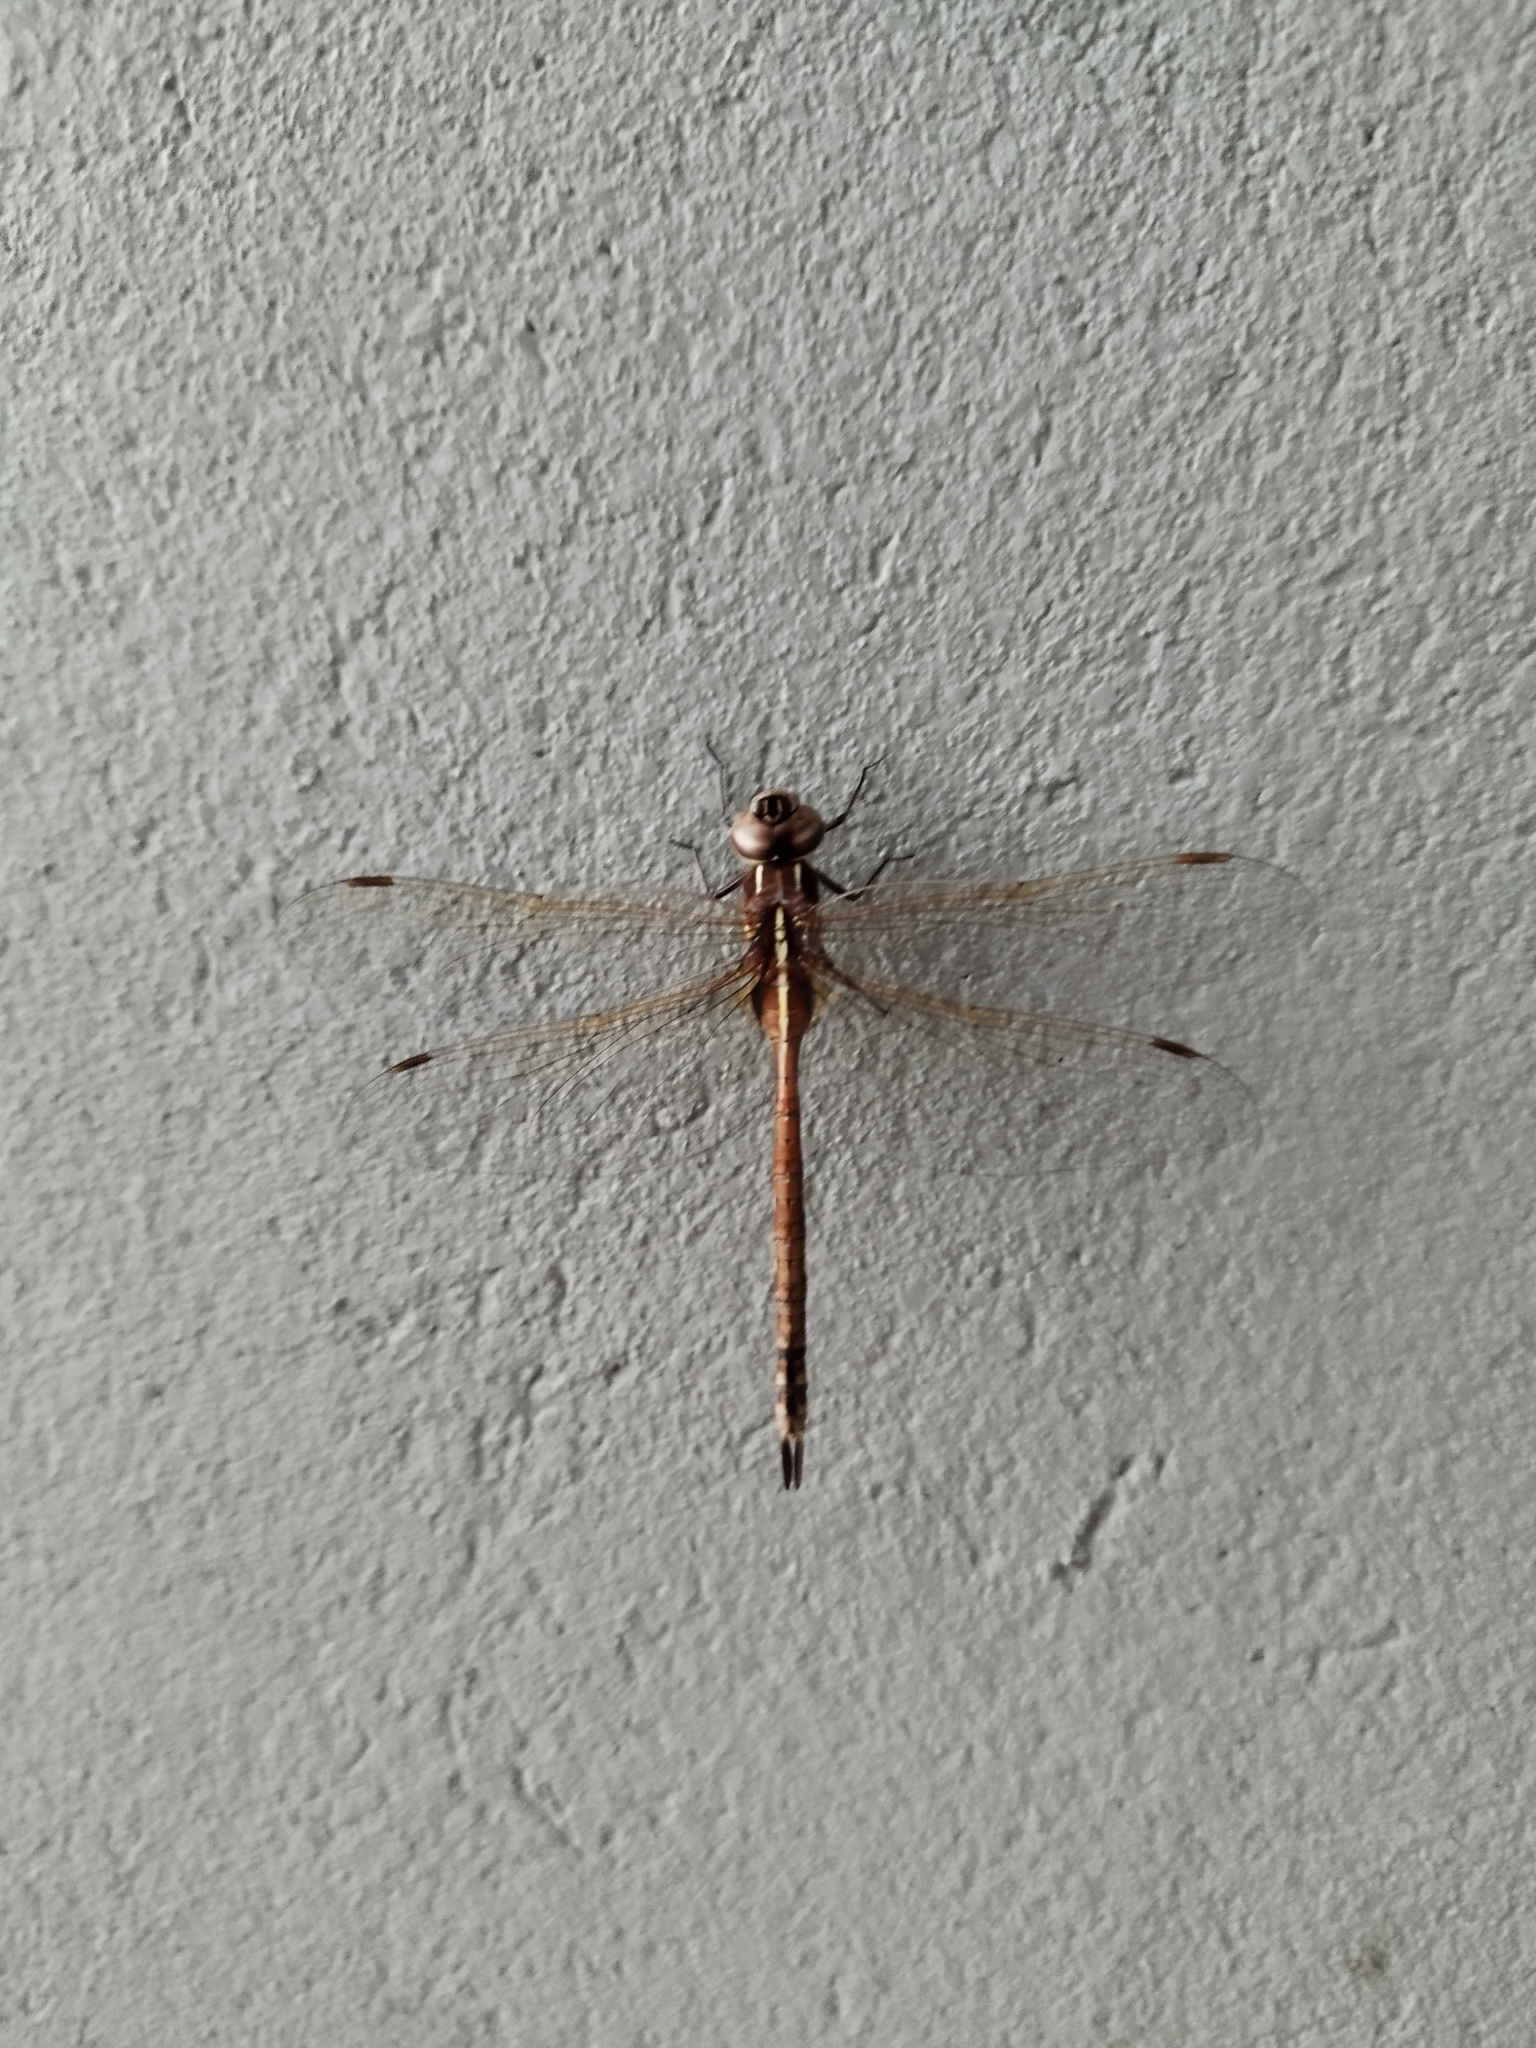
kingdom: Animalia
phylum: Arthropoda
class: Insecta
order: Odonata
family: Aeshnidae
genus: Rhionaeschna
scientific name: Rhionaeschna confusa
